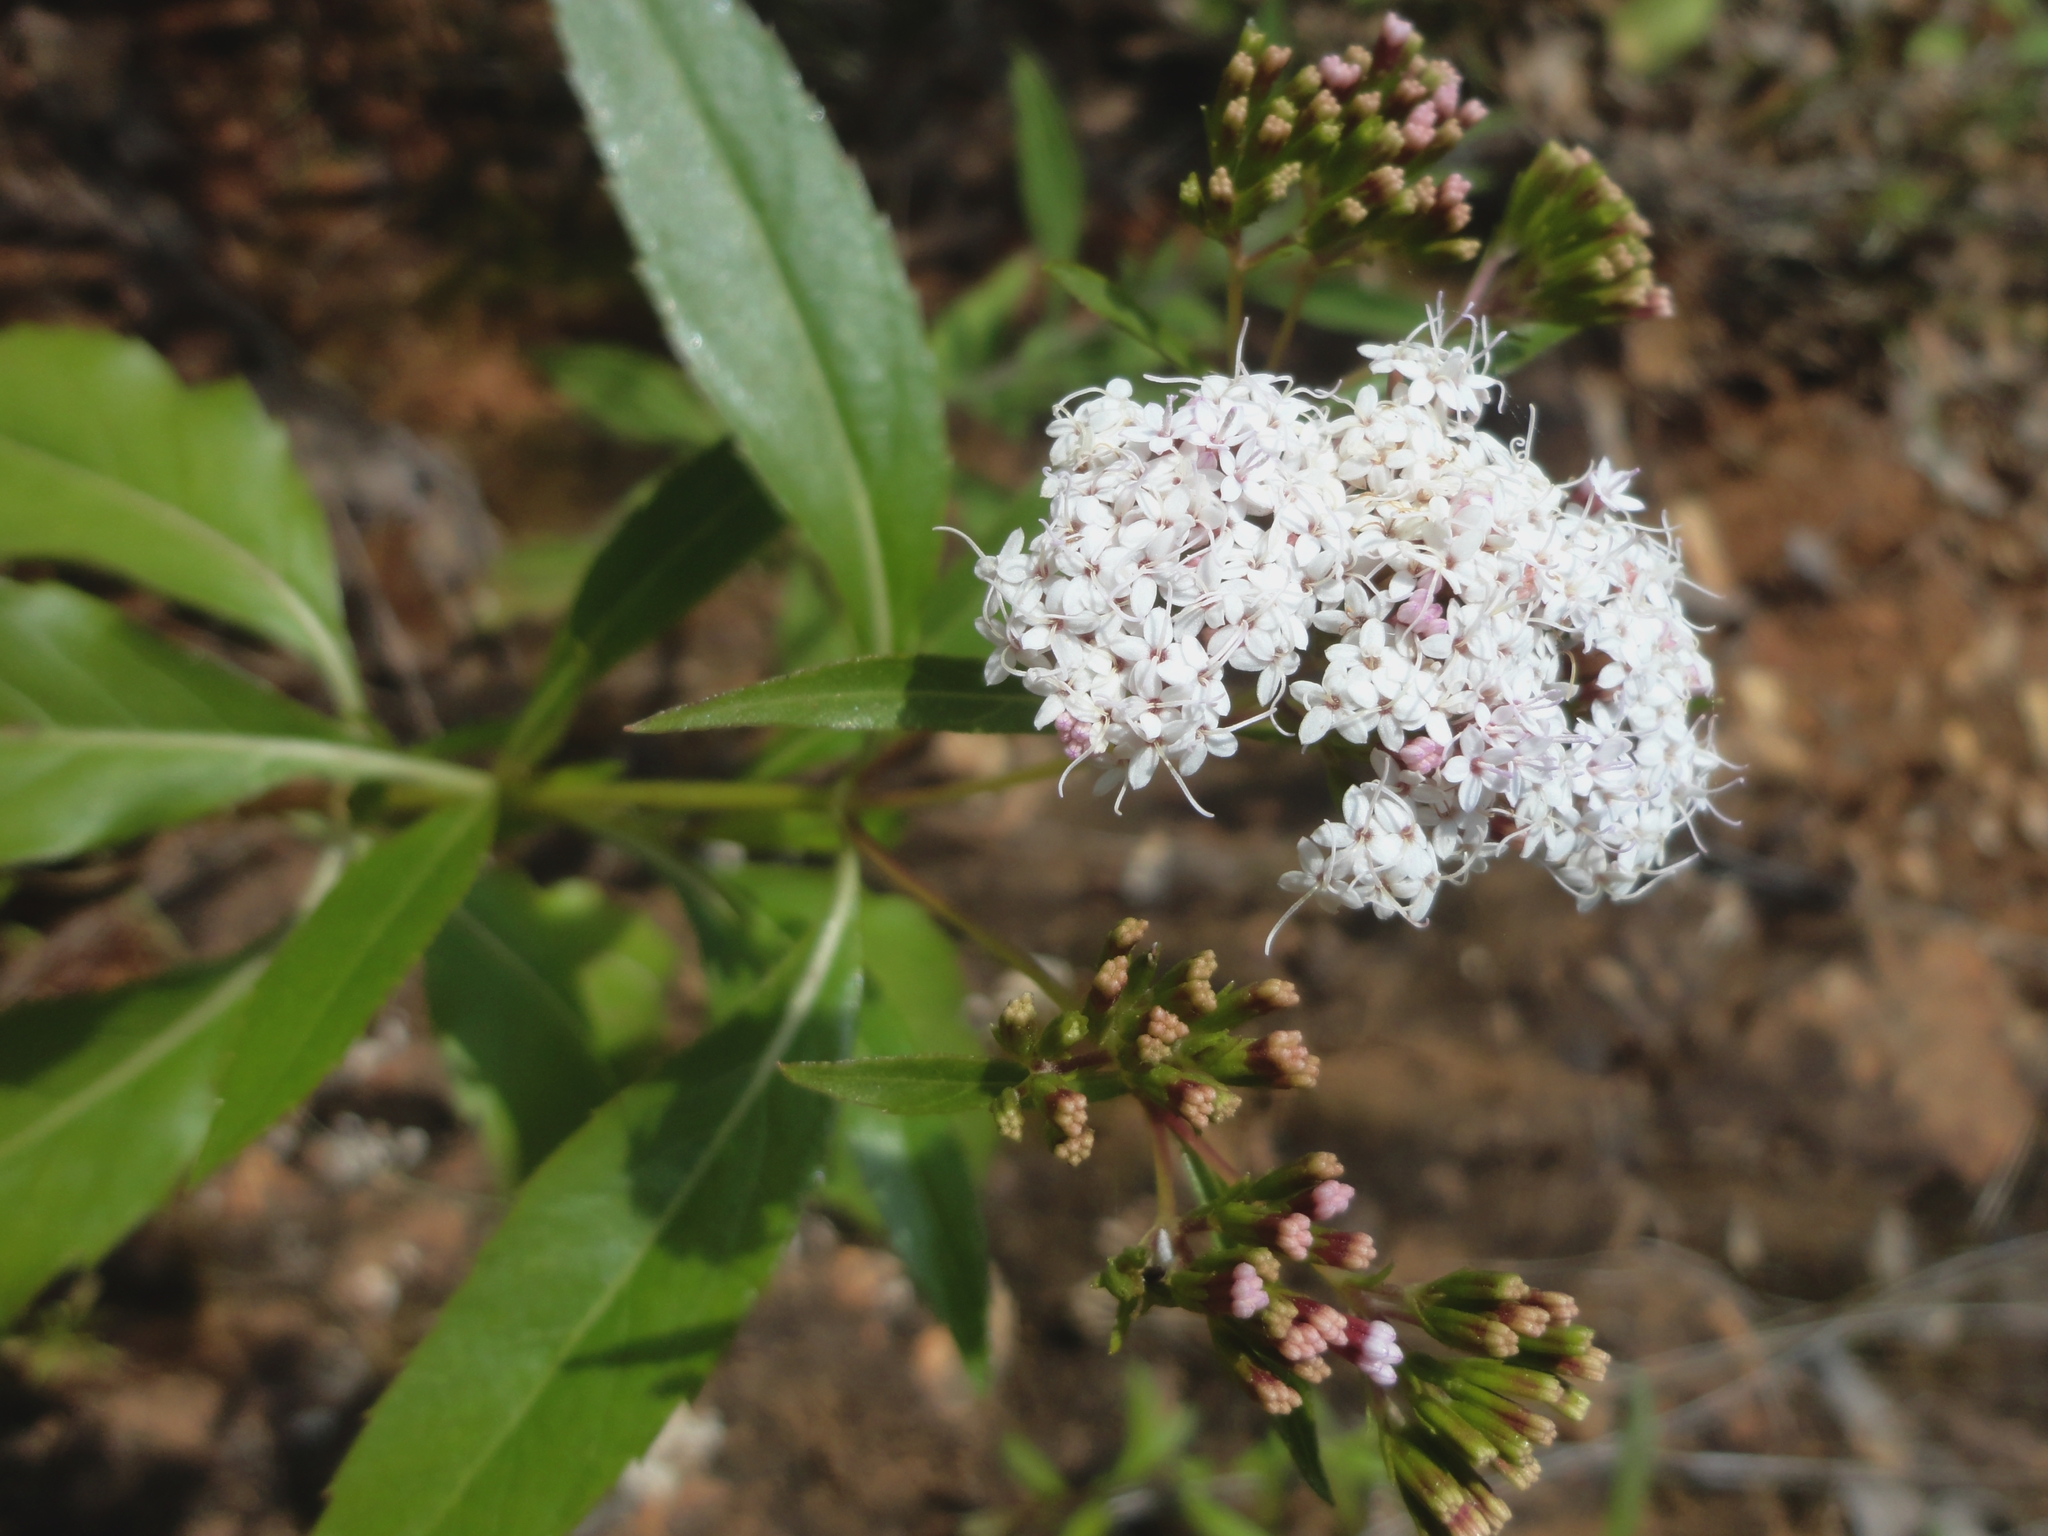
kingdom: Plantae
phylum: Tracheophyta
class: Magnoliopsida
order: Asterales
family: Asteraceae
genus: Stevia
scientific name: Stevia lucida
